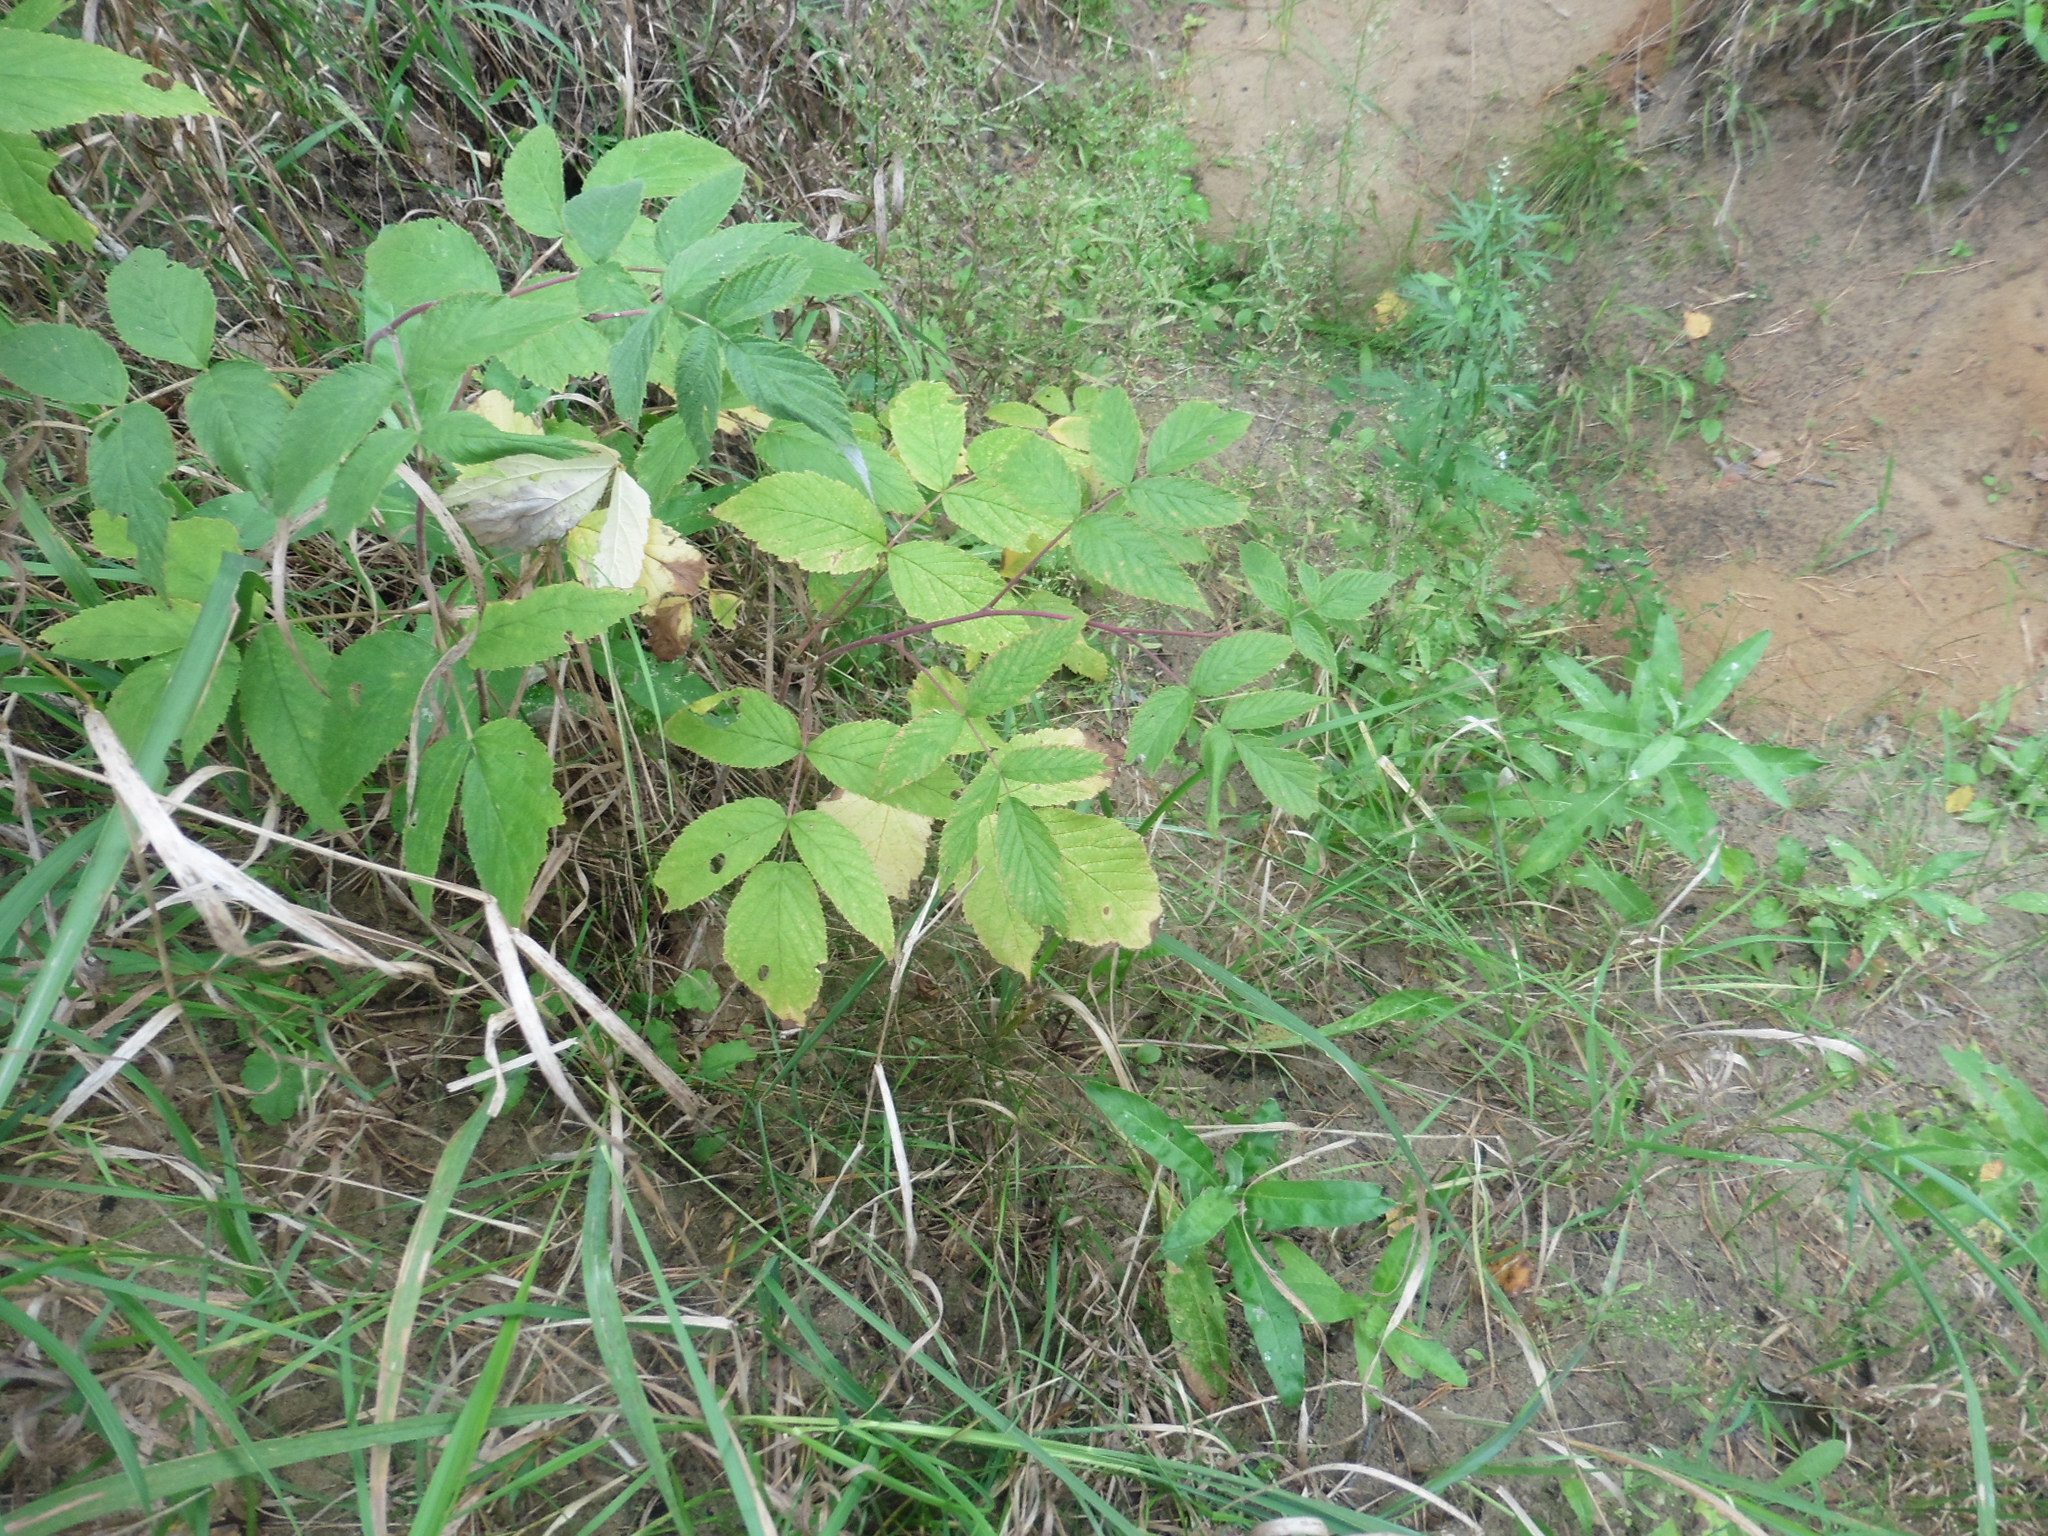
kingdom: Plantae
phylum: Tracheophyta
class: Magnoliopsida
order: Rosales
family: Rosaceae
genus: Rubus
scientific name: Rubus idaeus
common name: Raspberry
